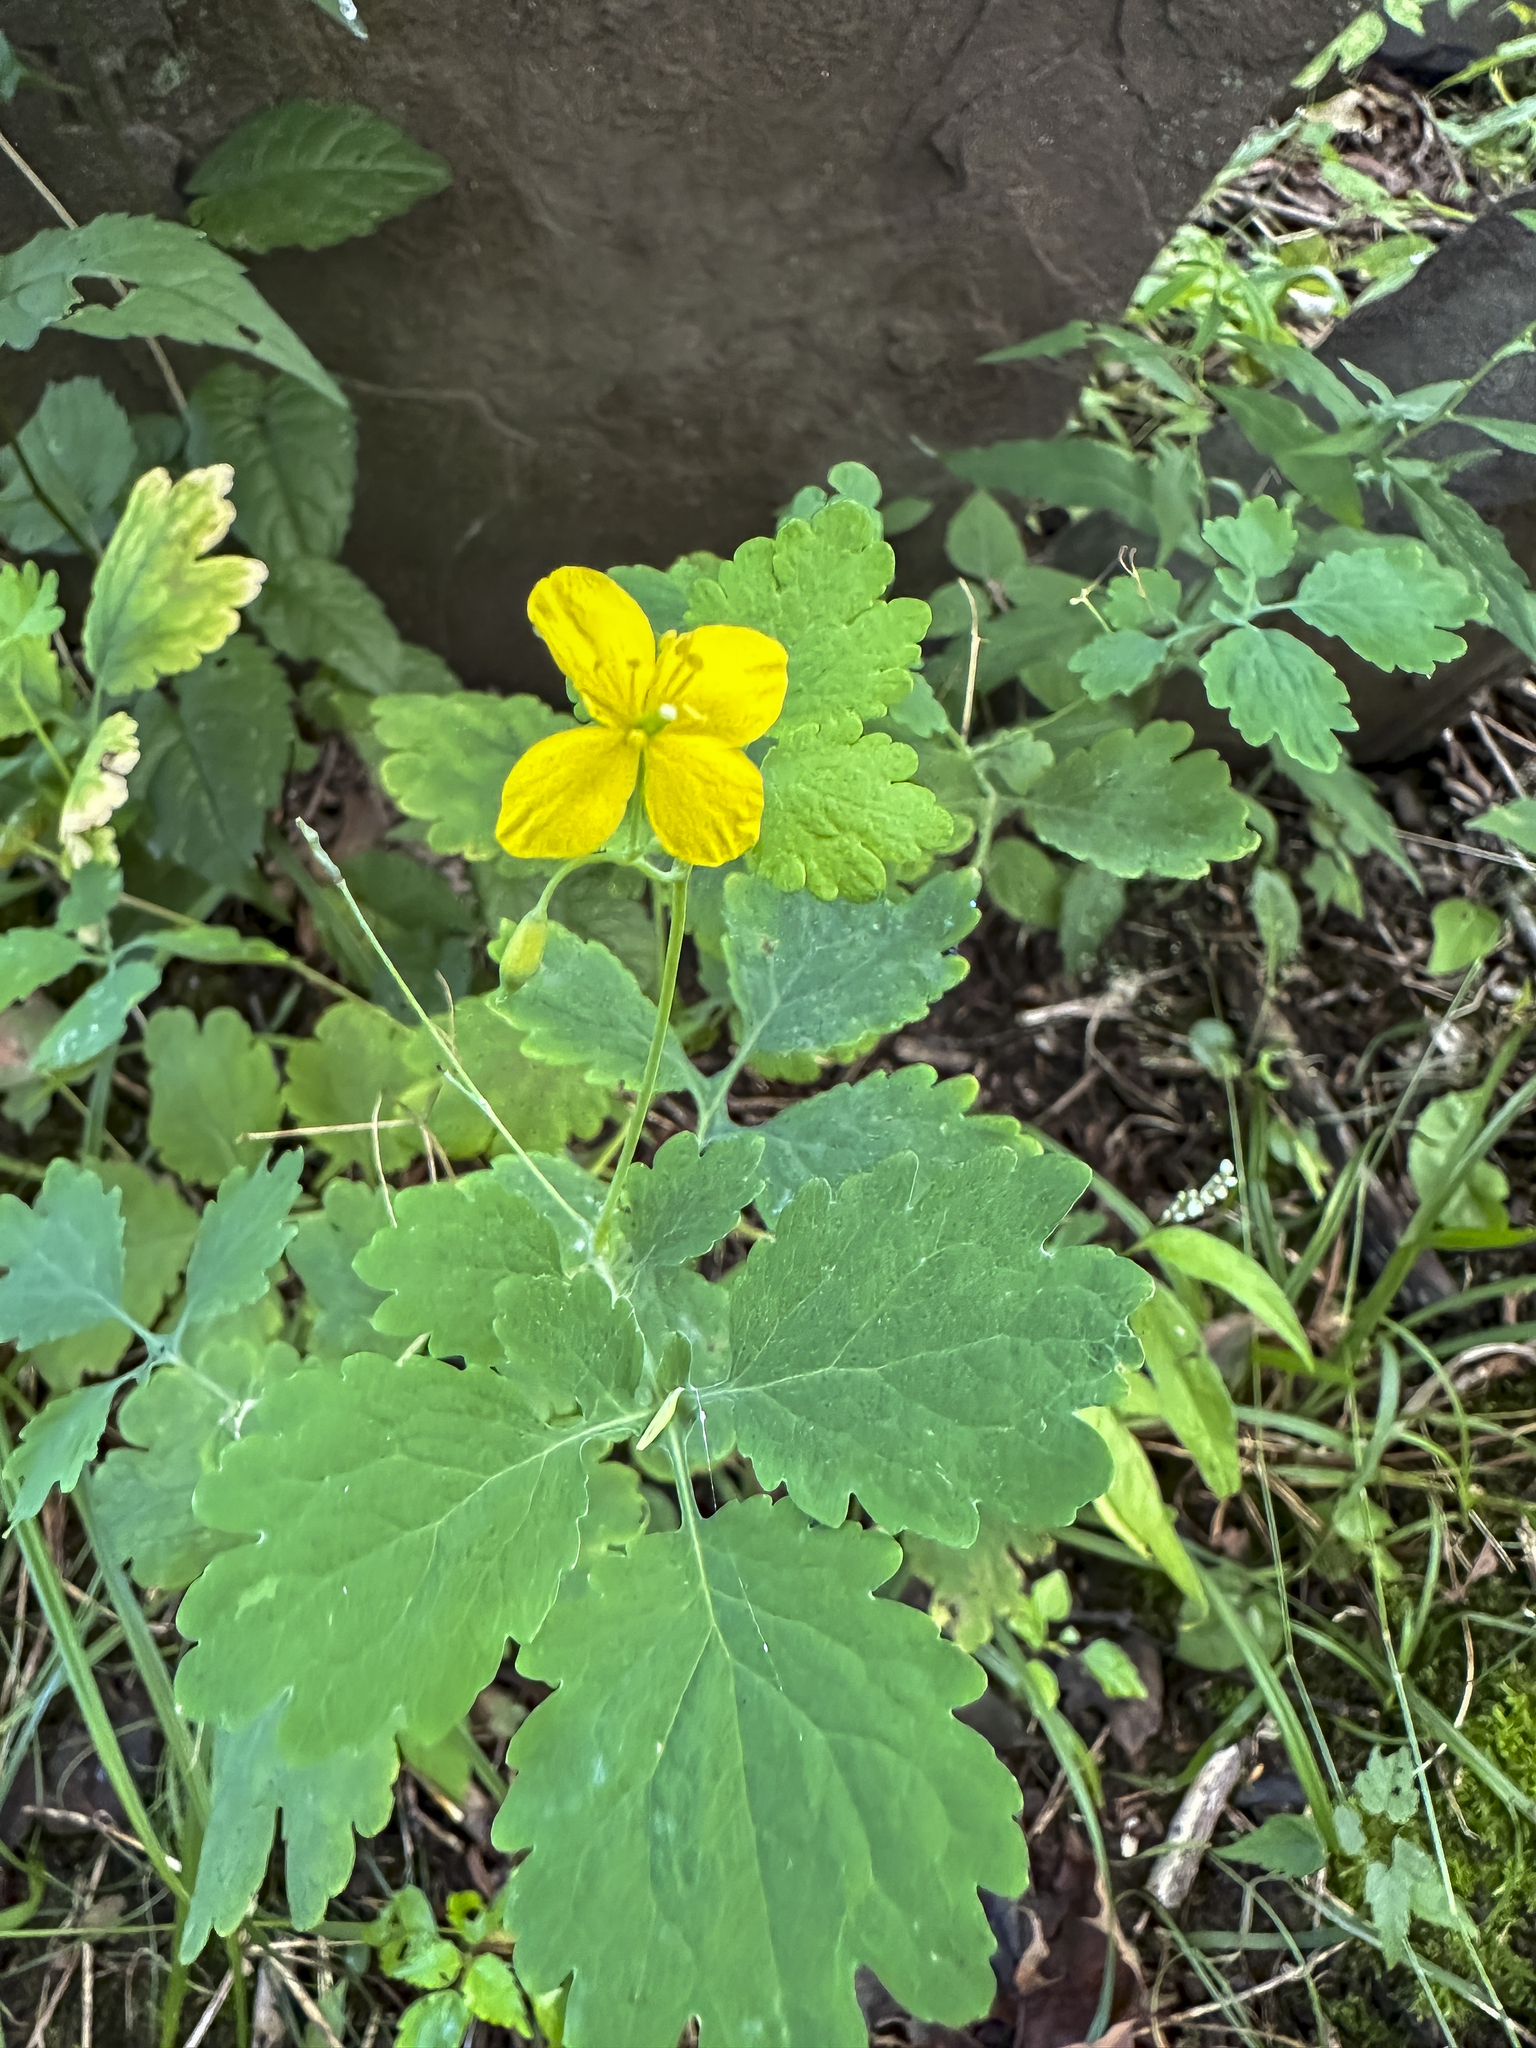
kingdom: Plantae
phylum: Tracheophyta
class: Magnoliopsida
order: Ranunculales
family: Papaveraceae
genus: Chelidonium
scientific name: Chelidonium majus
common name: Greater celandine
